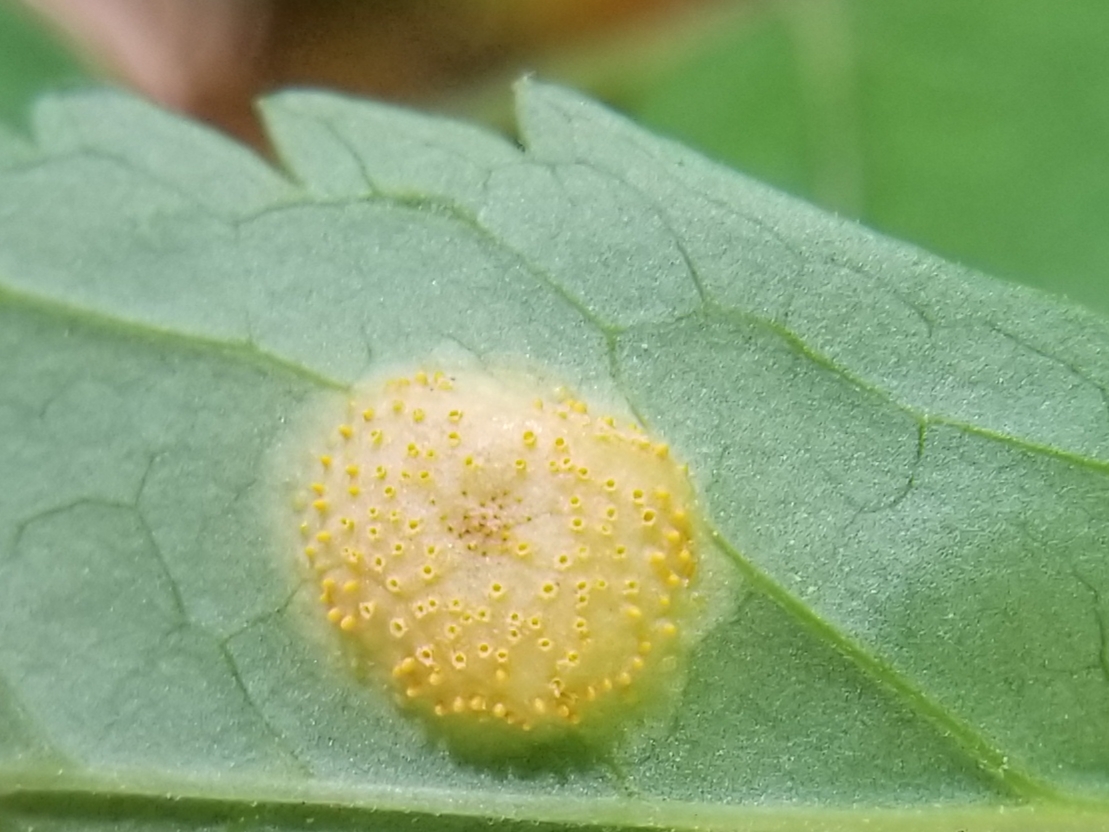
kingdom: Fungi
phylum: Basidiomycota
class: Pucciniomycetes
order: Pucciniales
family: Pucciniaceae
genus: Puccinia
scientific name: Puccinia recondita
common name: Brown rust of wheat
